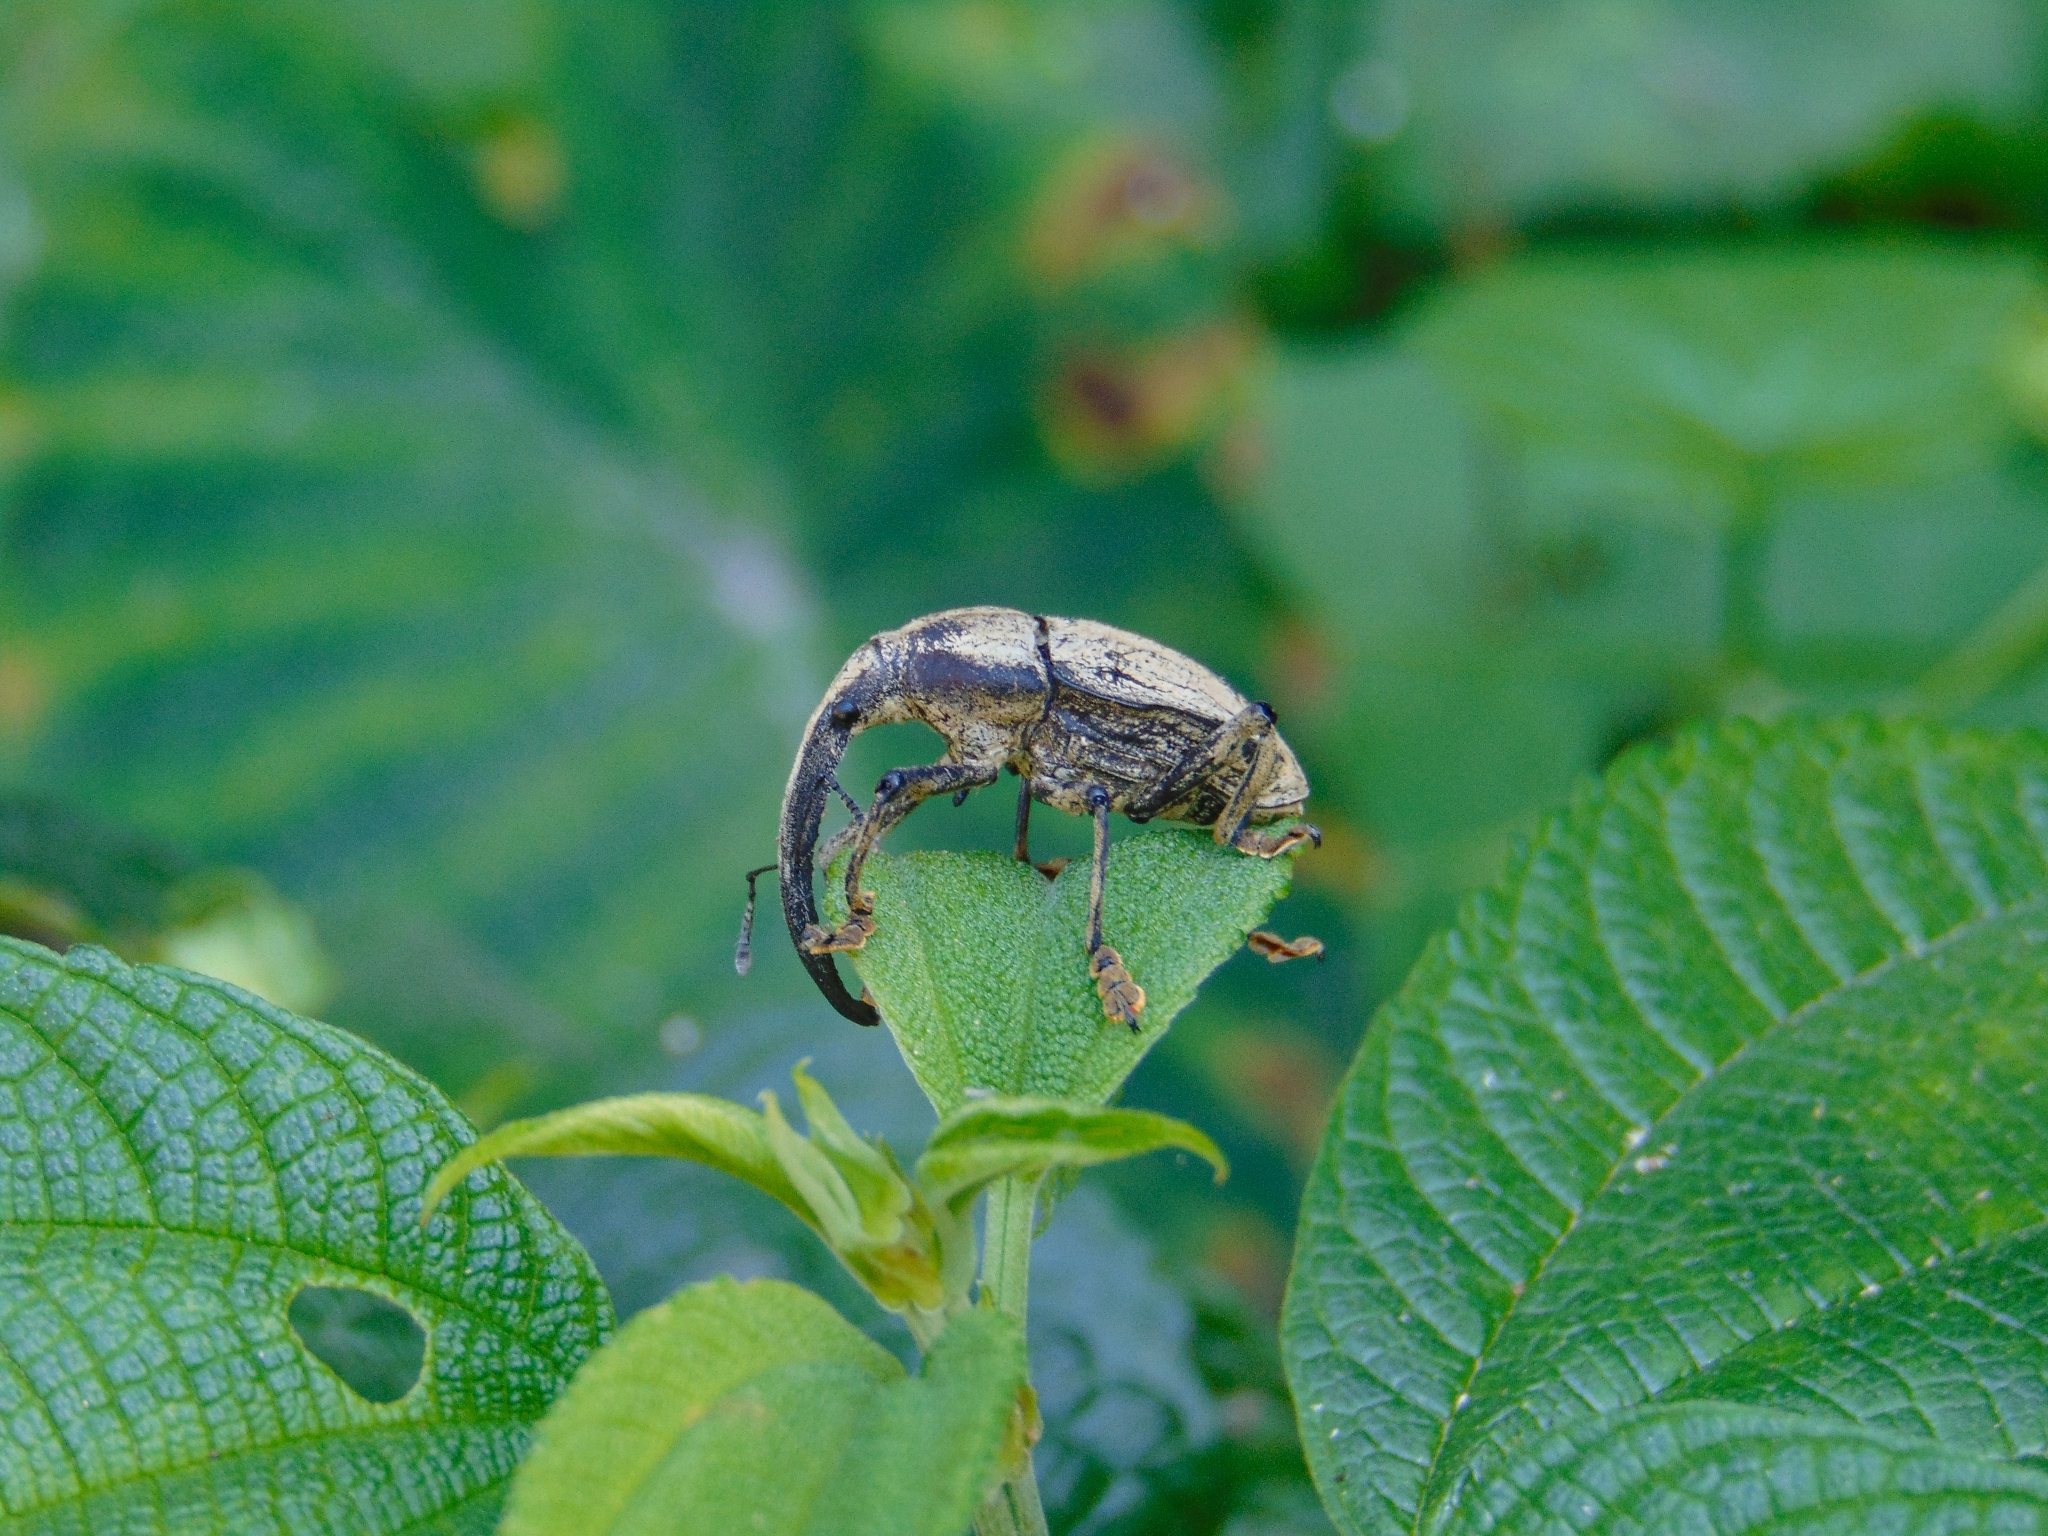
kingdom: Animalia
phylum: Arthropoda
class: Insecta
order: Coleoptera
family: Curculionidae
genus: Rhinastus
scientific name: Rhinastus sternicornis
